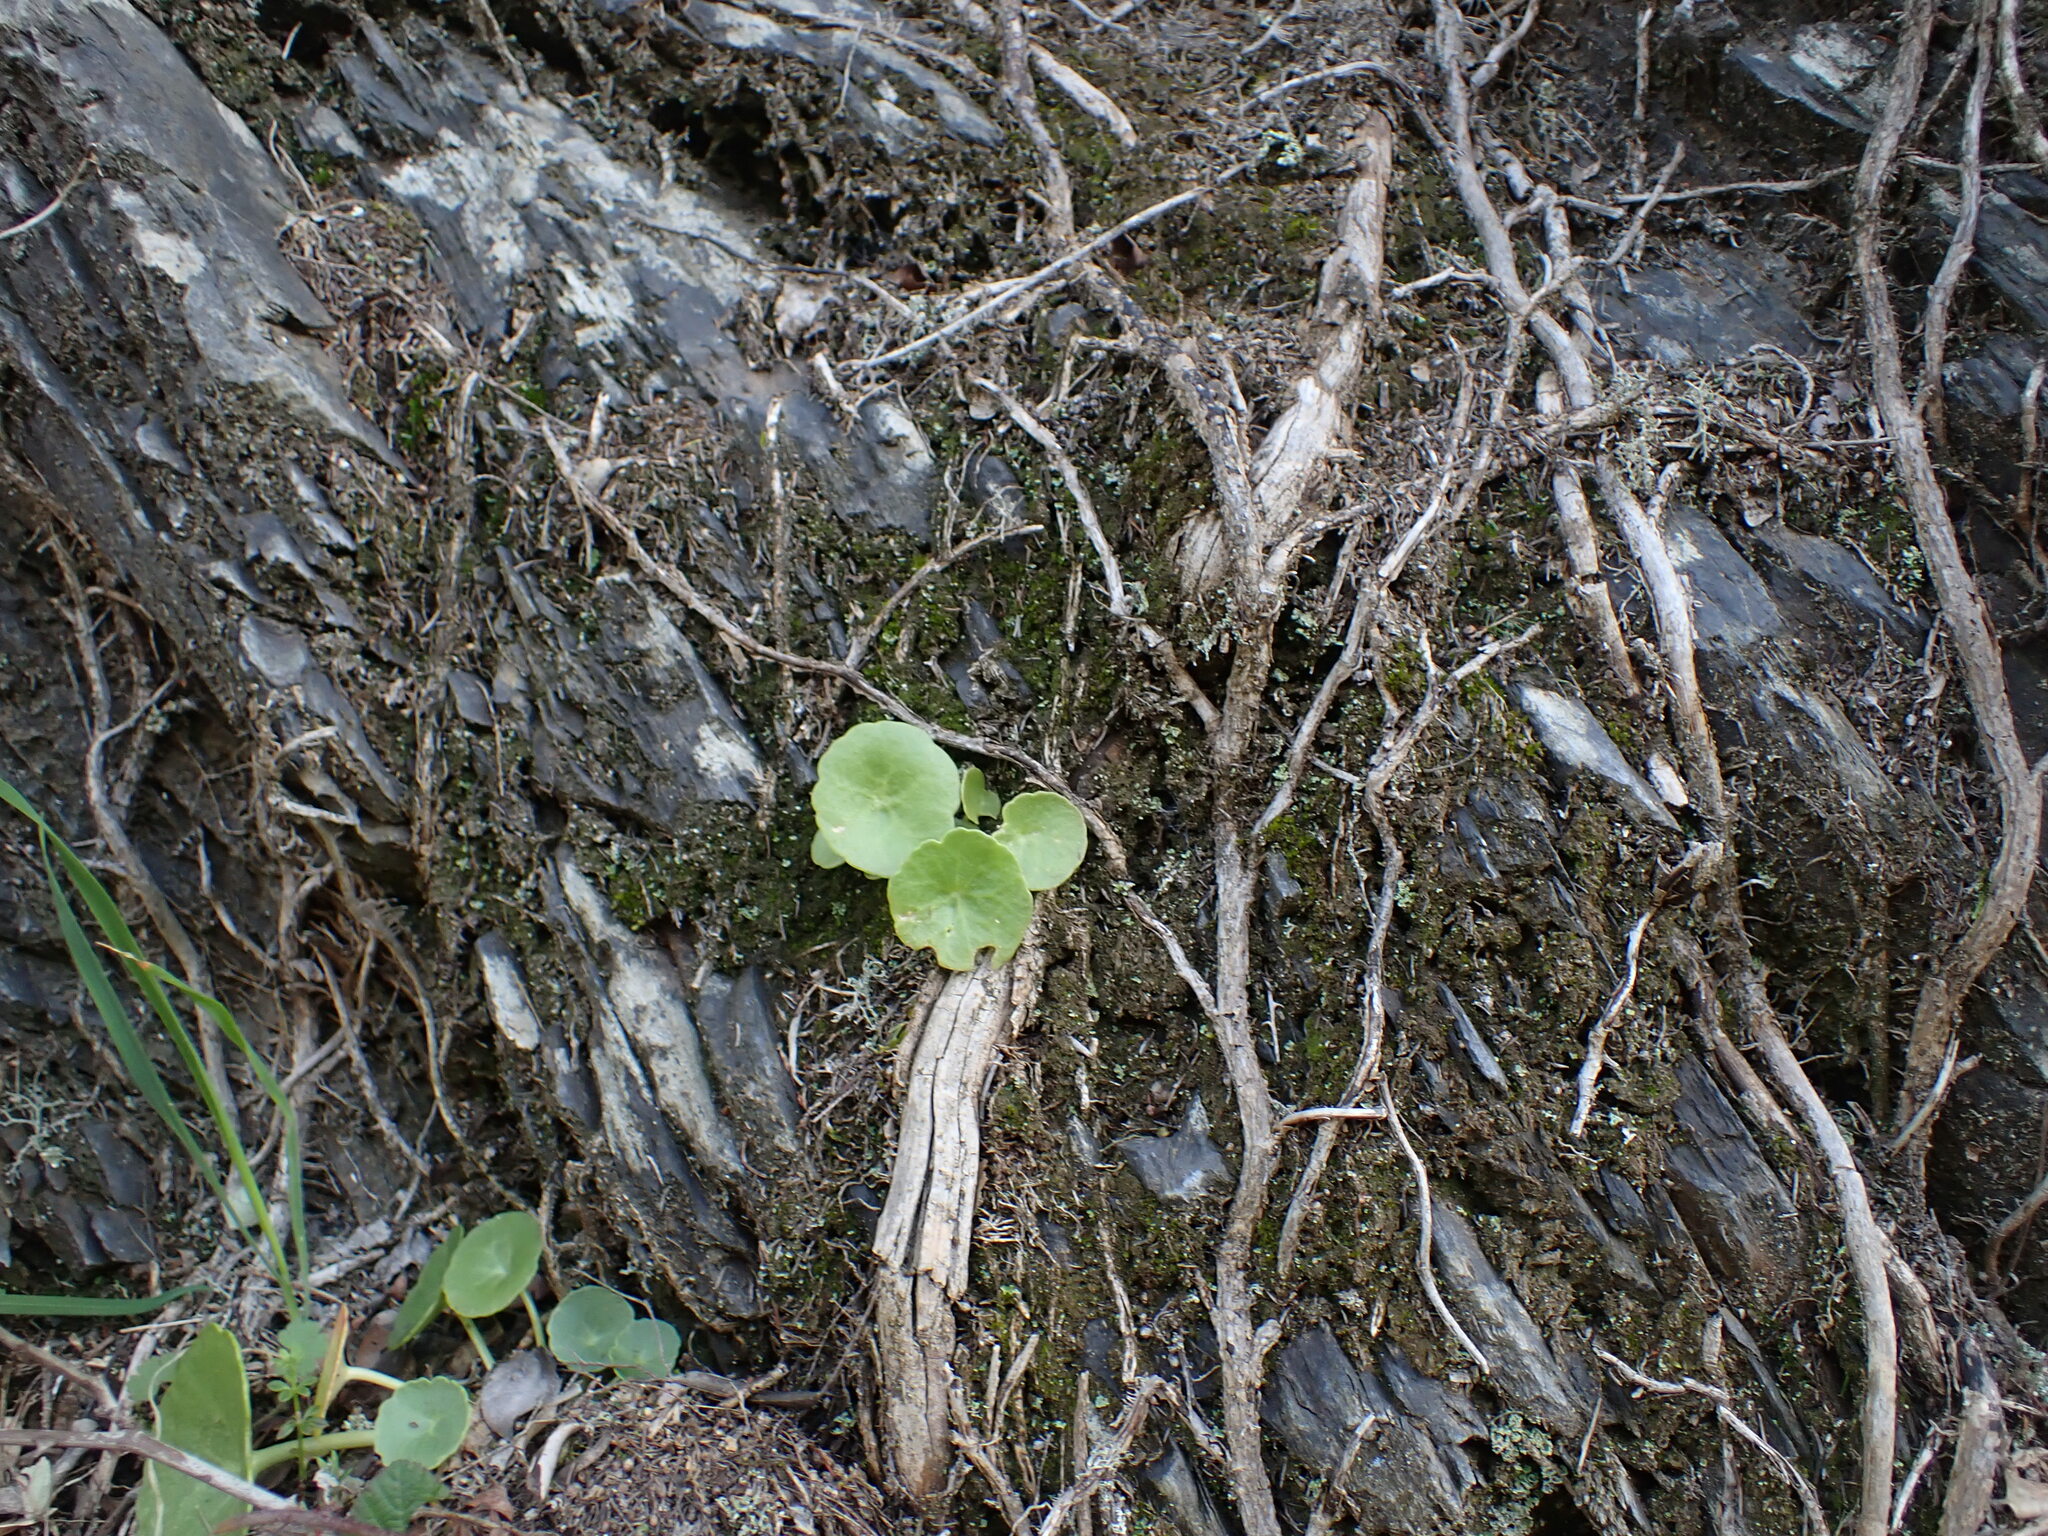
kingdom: Plantae
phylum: Tracheophyta
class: Magnoliopsida
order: Saxifragales
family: Crassulaceae
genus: Umbilicus
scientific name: Umbilicus rupestris
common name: Navelwort
